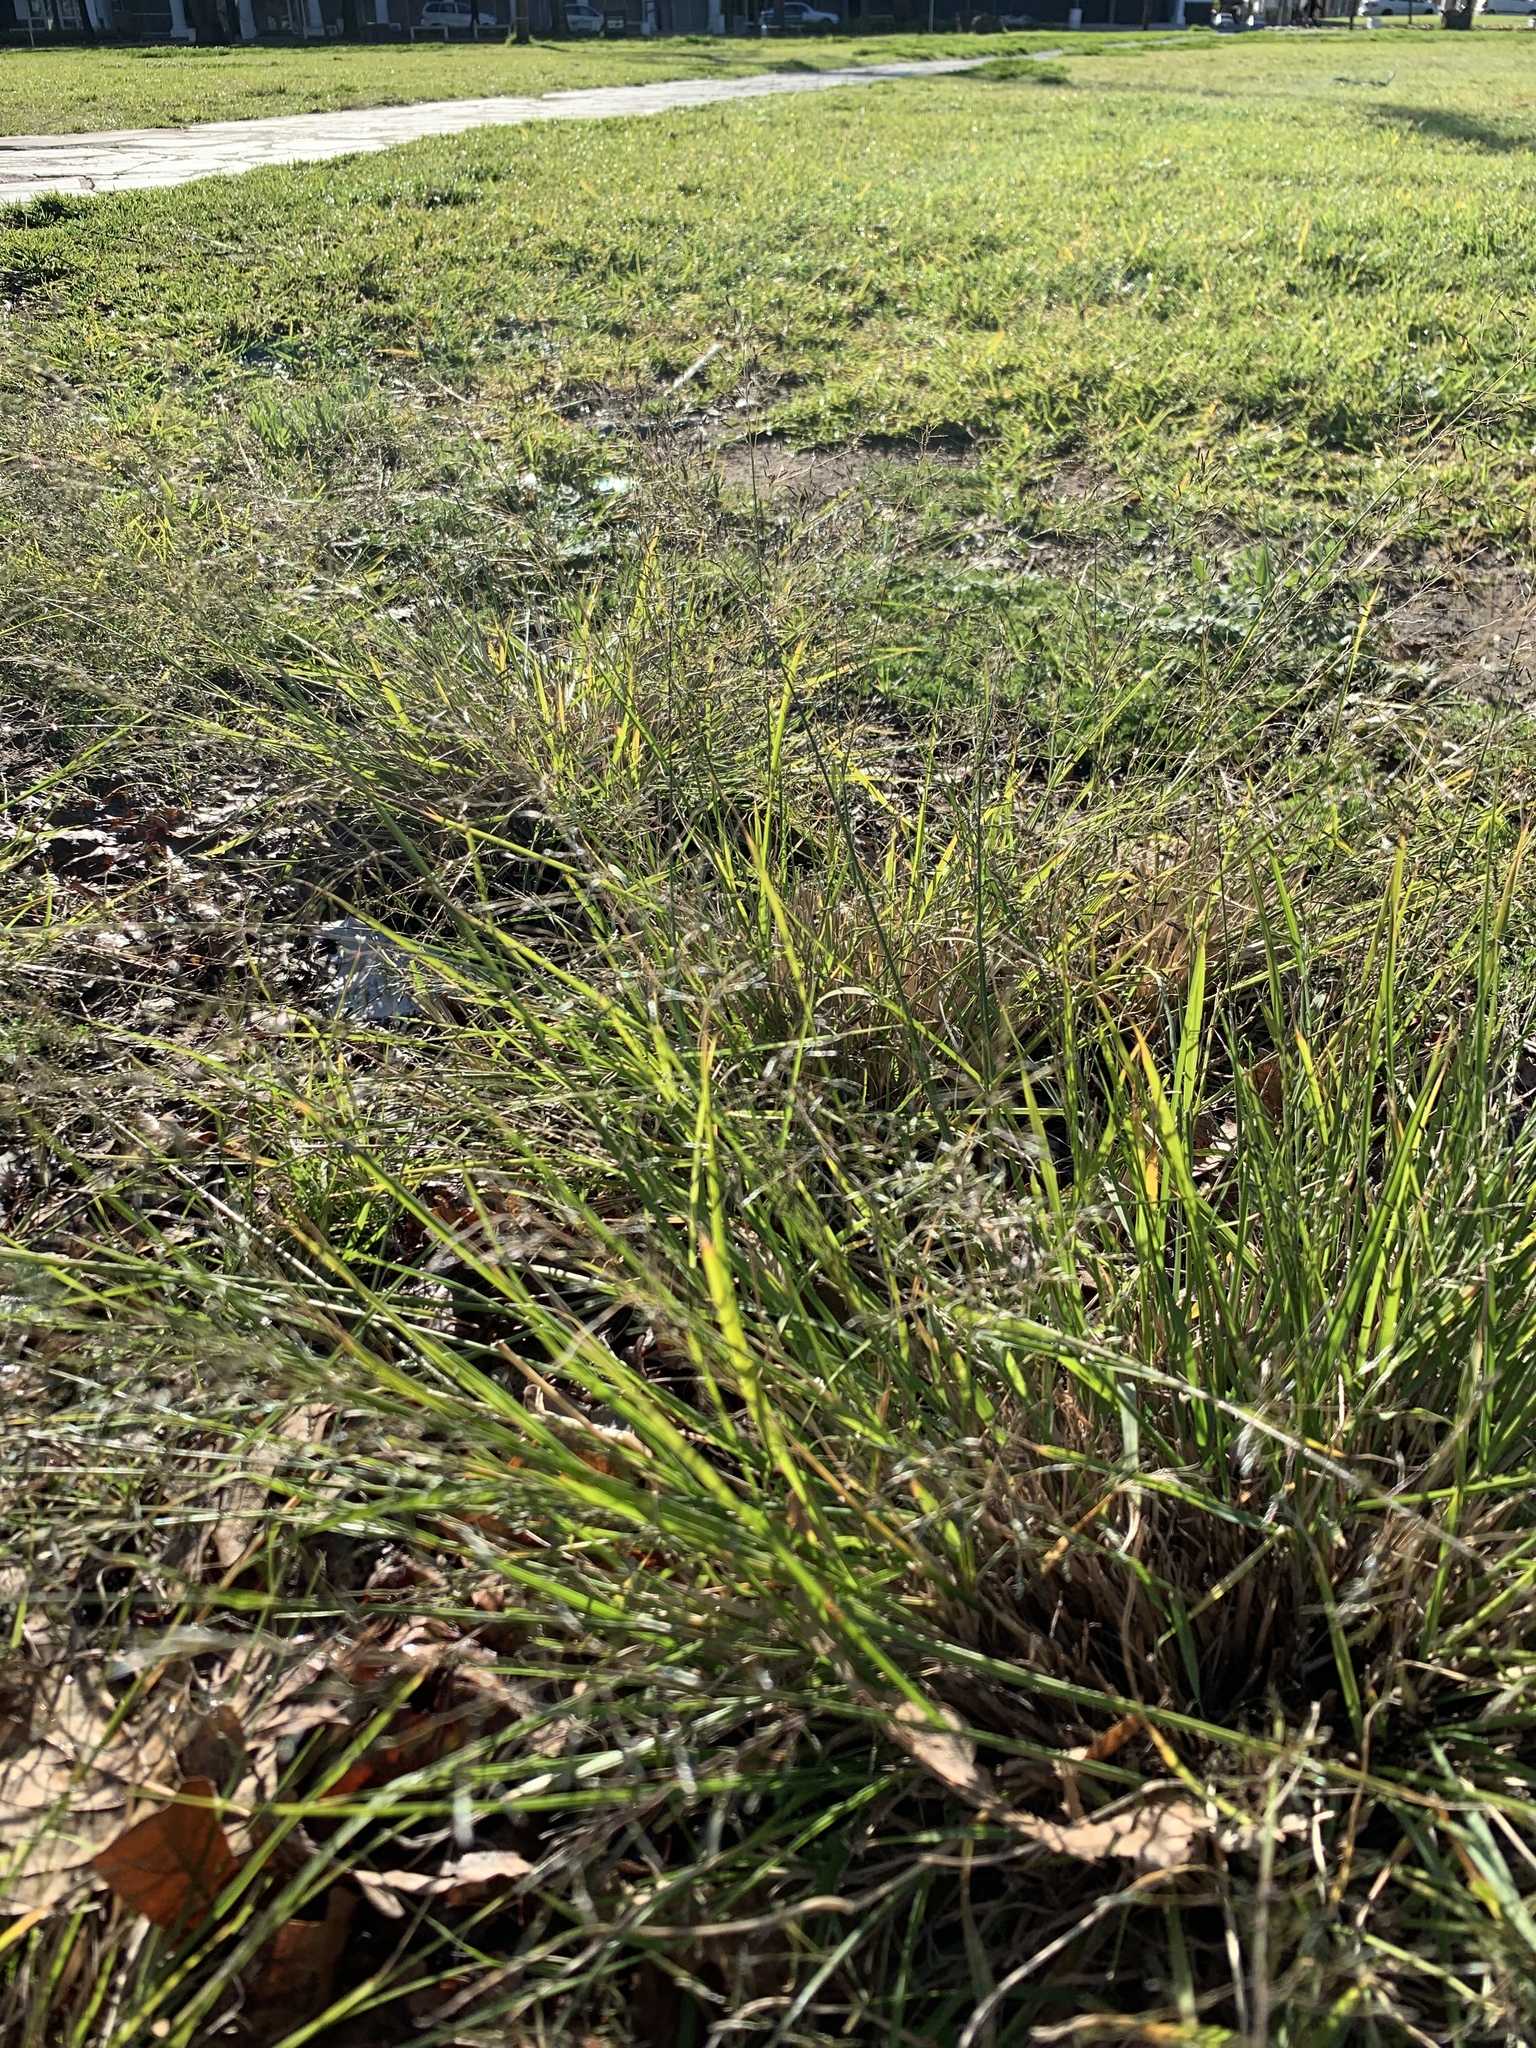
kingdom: Plantae
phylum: Tracheophyta
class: Liliopsida
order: Poales
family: Poaceae
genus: Eragrostis
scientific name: Eragrostis curvula
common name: African love-grass
